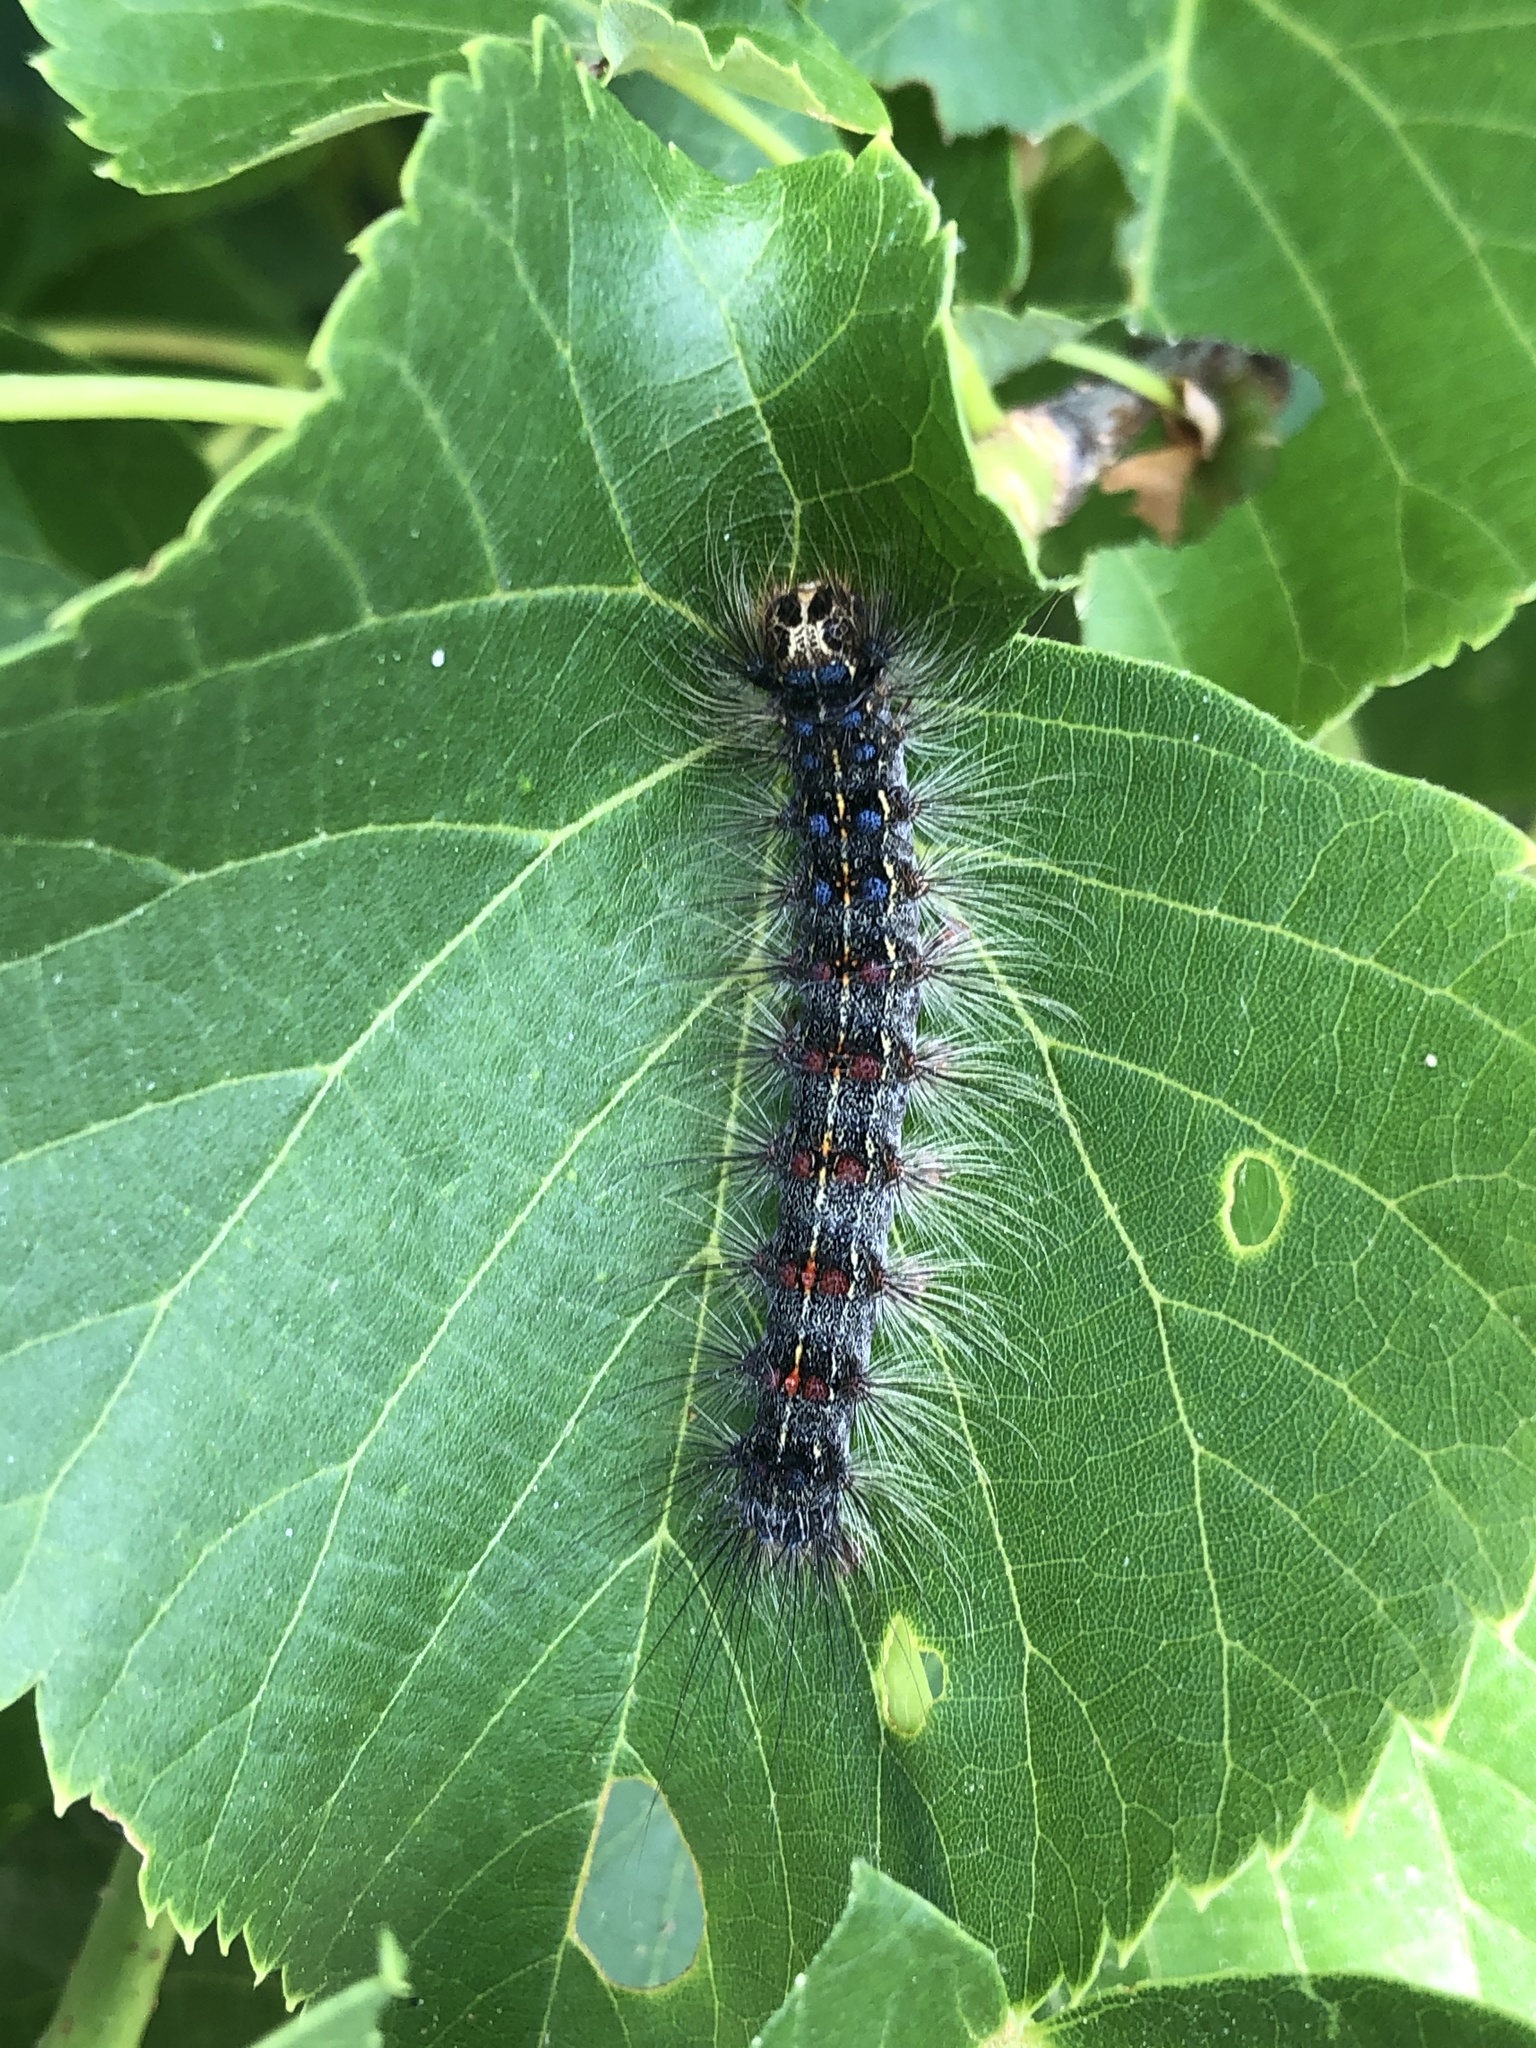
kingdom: Animalia
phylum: Arthropoda
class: Insecta
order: Lepidoptera
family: Erebidae
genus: Lymantria
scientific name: Lymantria dispar
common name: Gypsy moth
